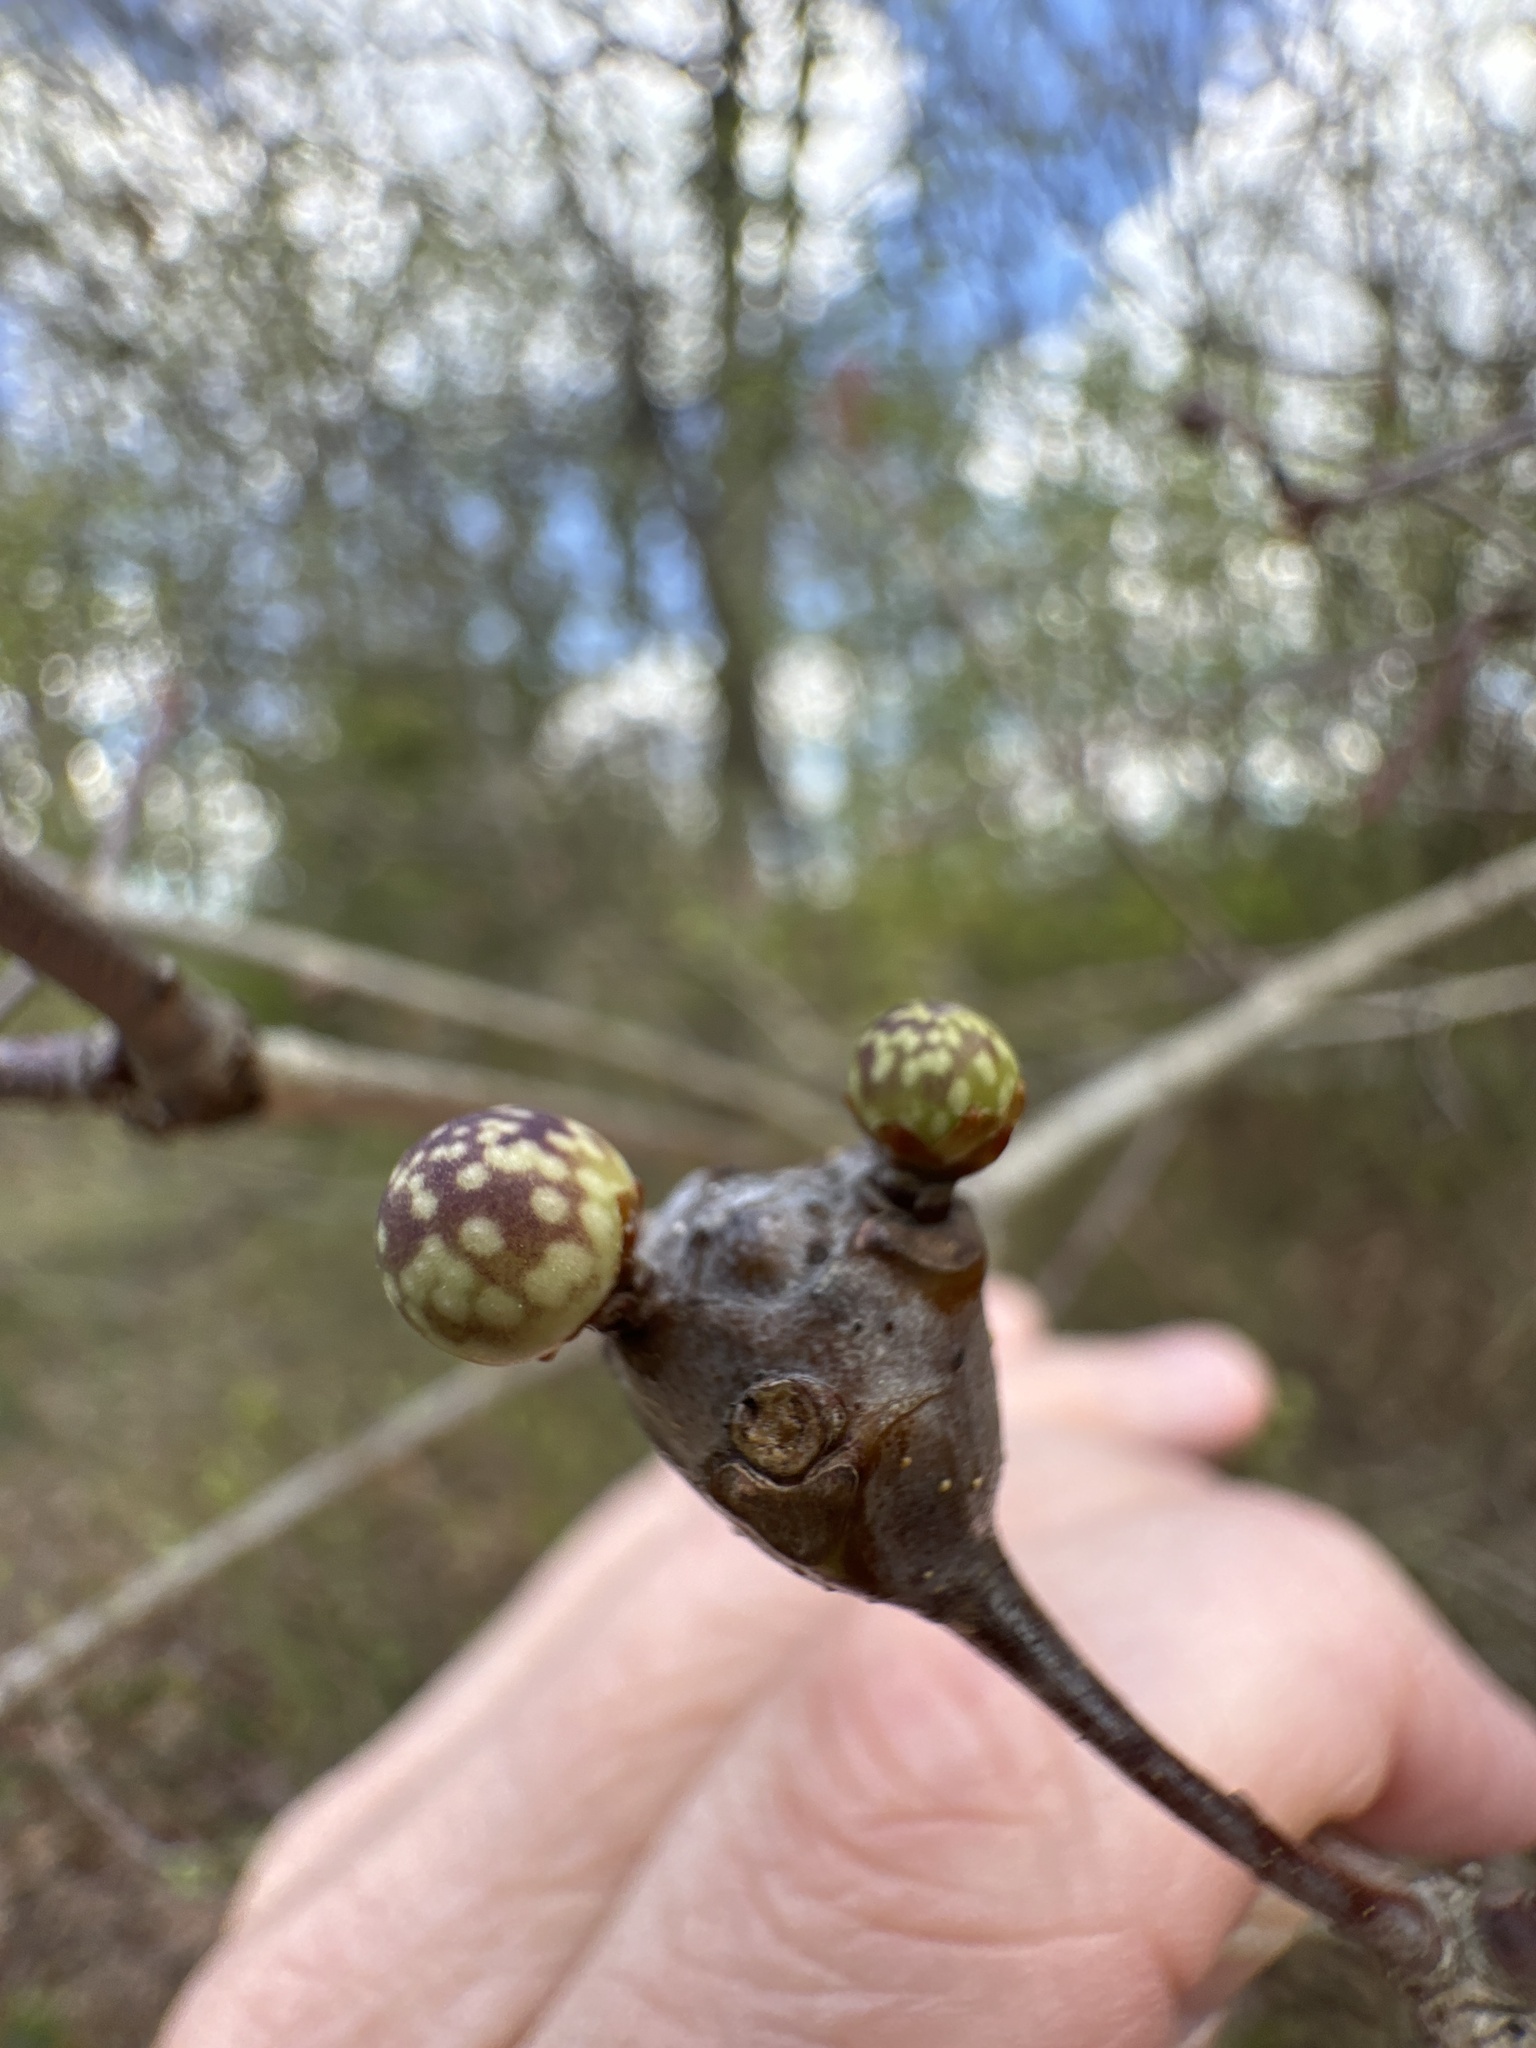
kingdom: Animalia
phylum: Arthropoda
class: Insecta
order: Hymenoptera
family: Cynipidae
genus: Andricus
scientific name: Andricus
